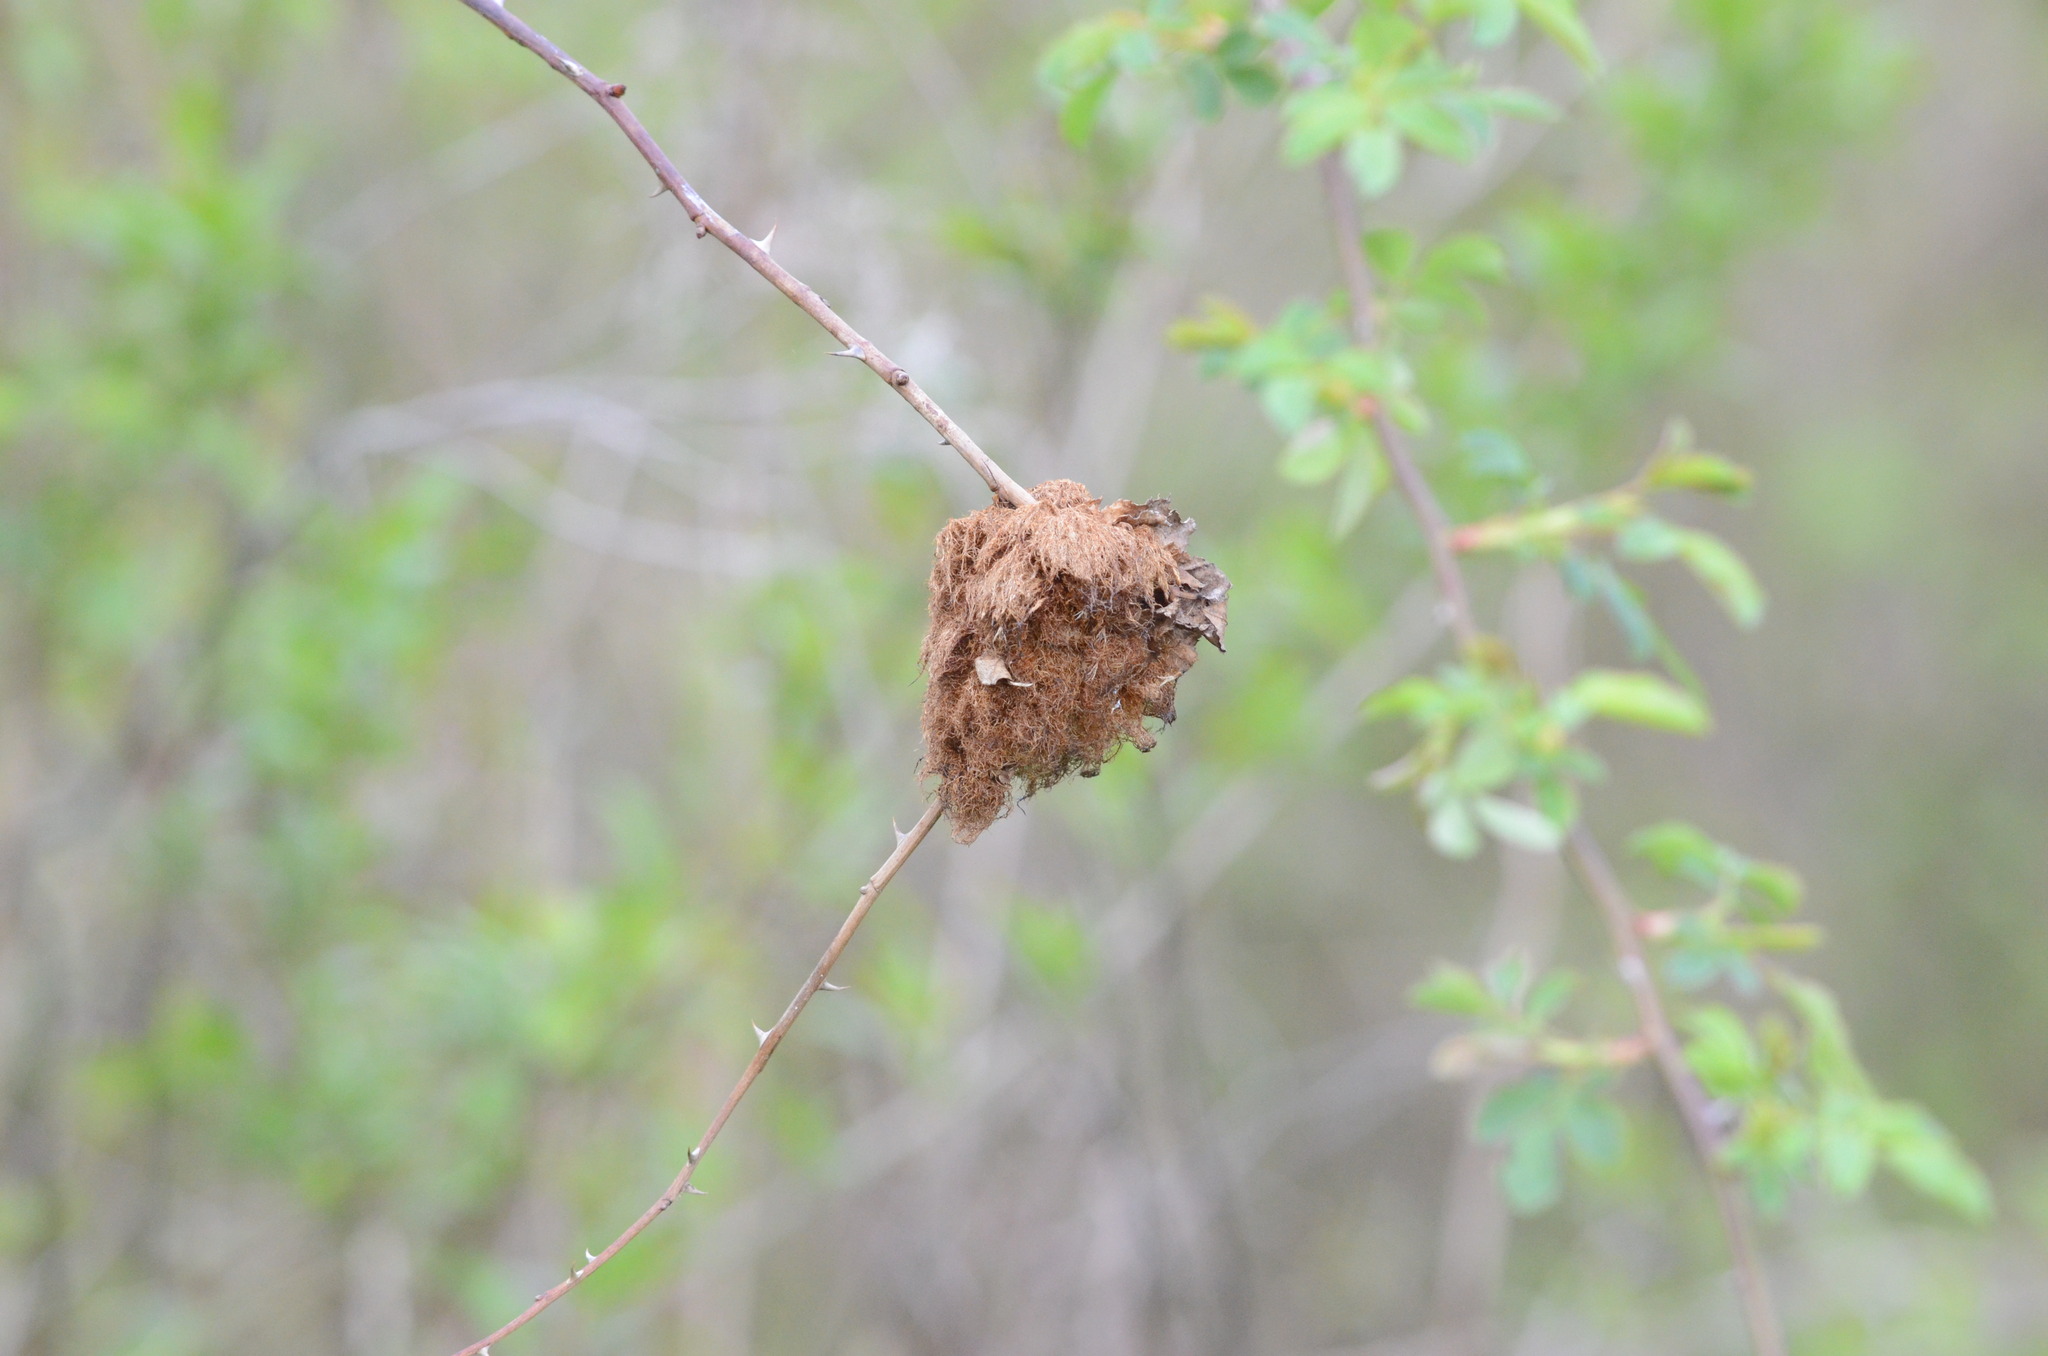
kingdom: Animalia
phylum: Arthropoda
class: Insecta
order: Hymenoptera
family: Cynipidae
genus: Diplolepis
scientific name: Diplolepis rosae
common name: Bedeguar gall
